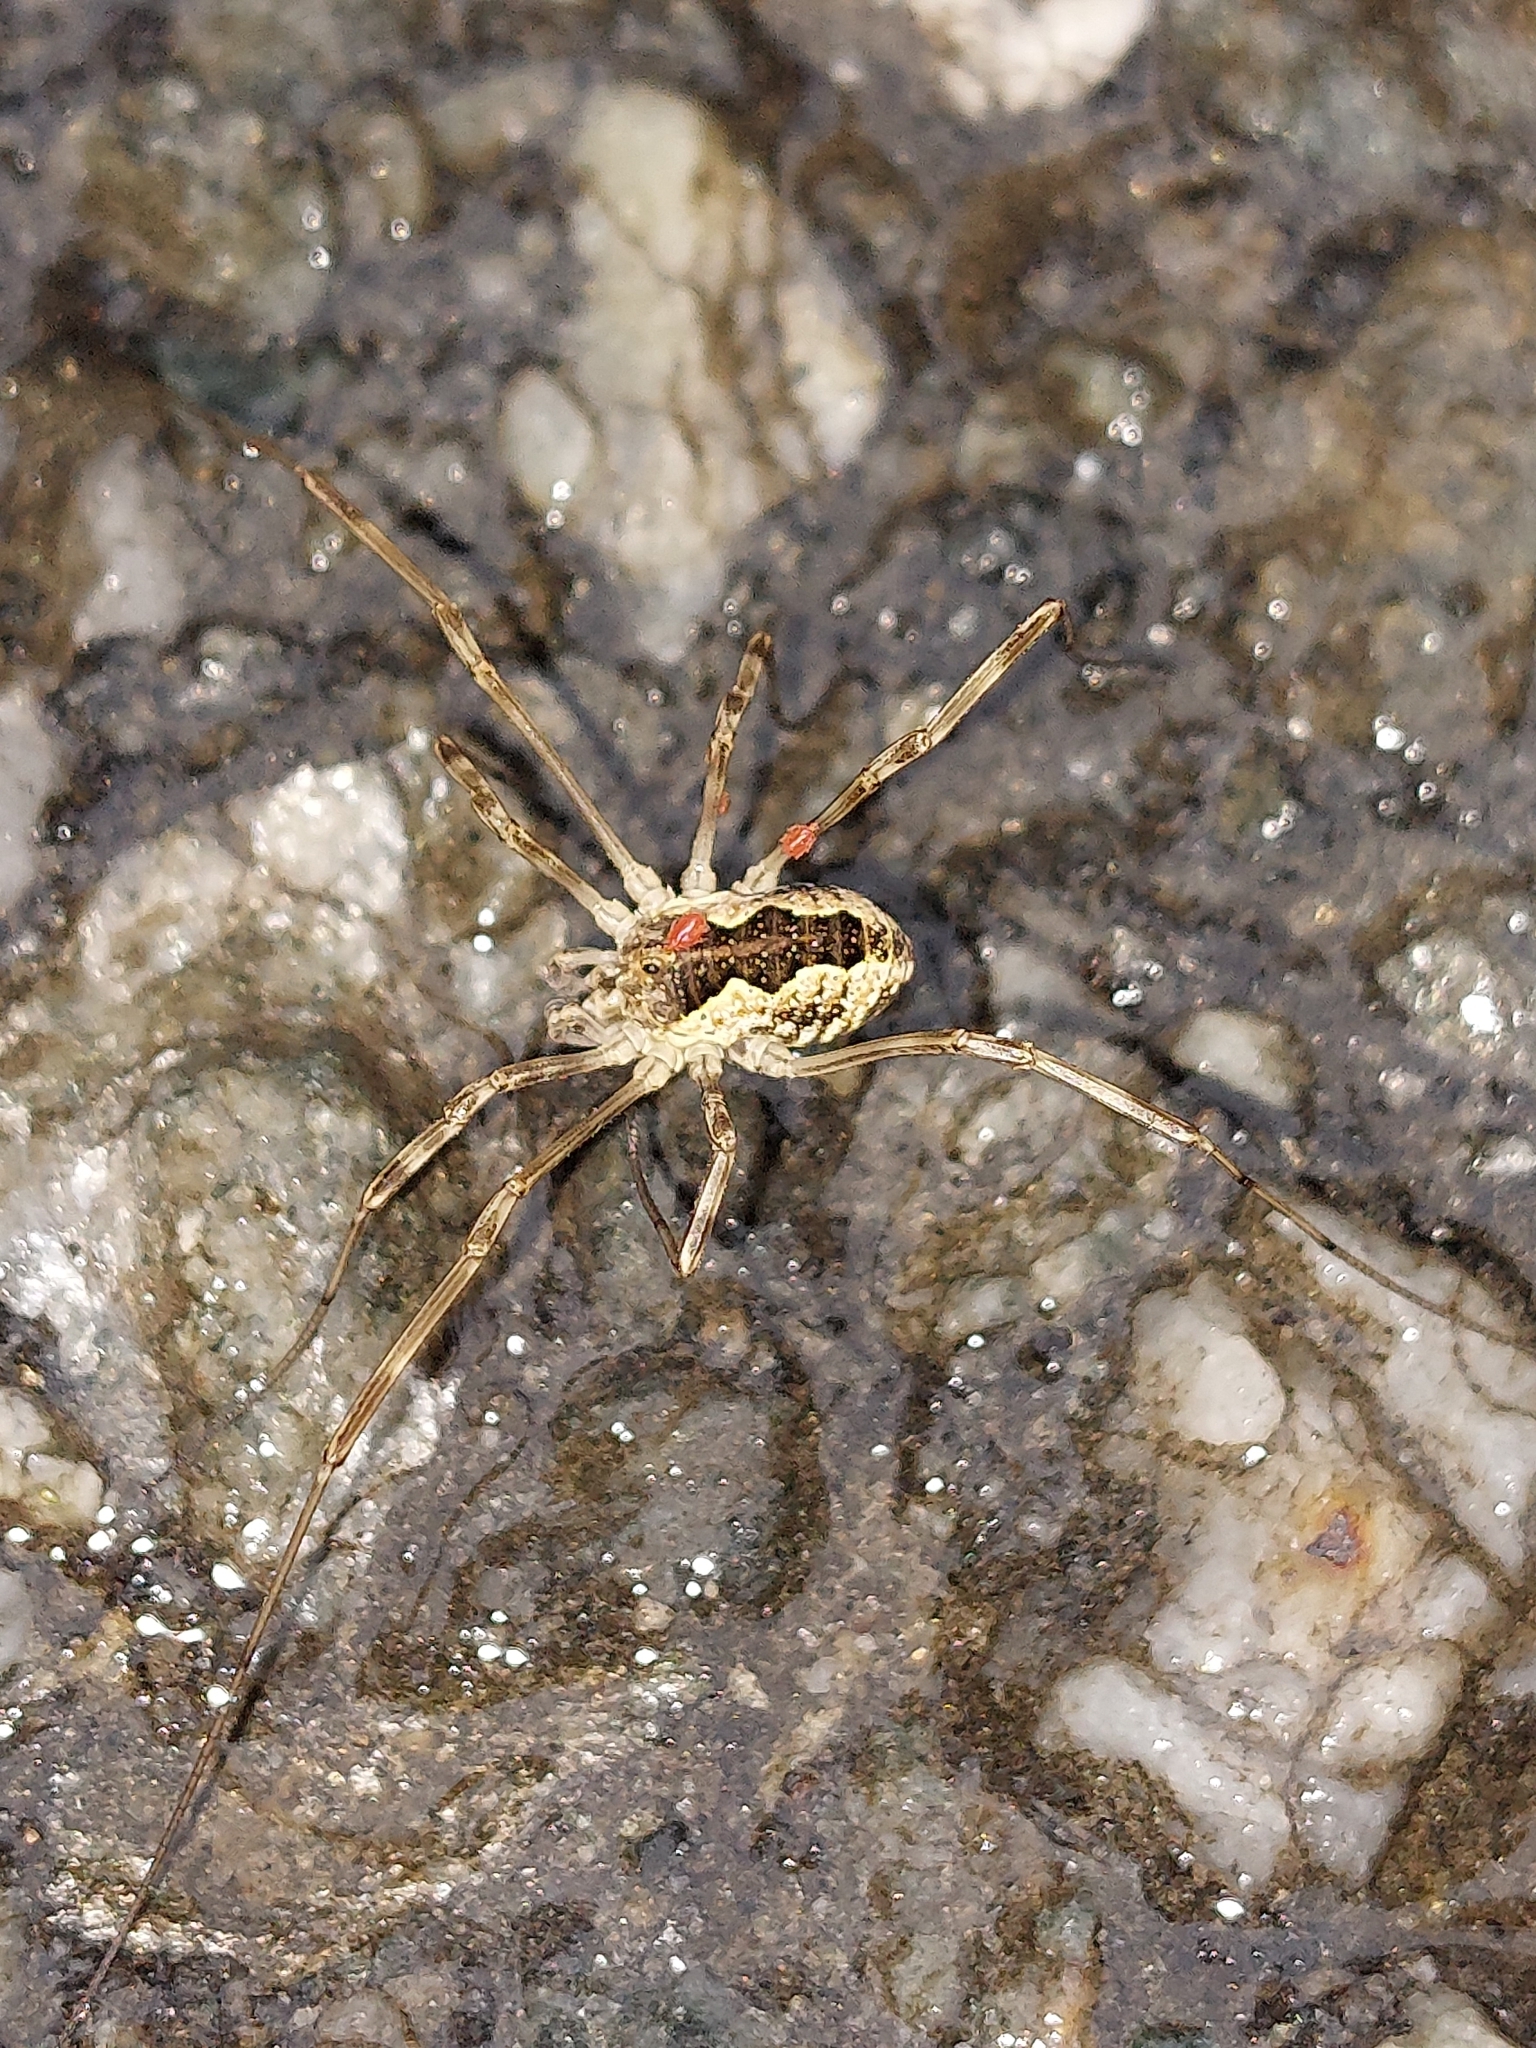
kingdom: Animalia
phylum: Arthropoda
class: Arachnida
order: Opiliones
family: Phalangiidae
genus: Mitopus
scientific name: Mitopus morio
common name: Saddleback harvestman
